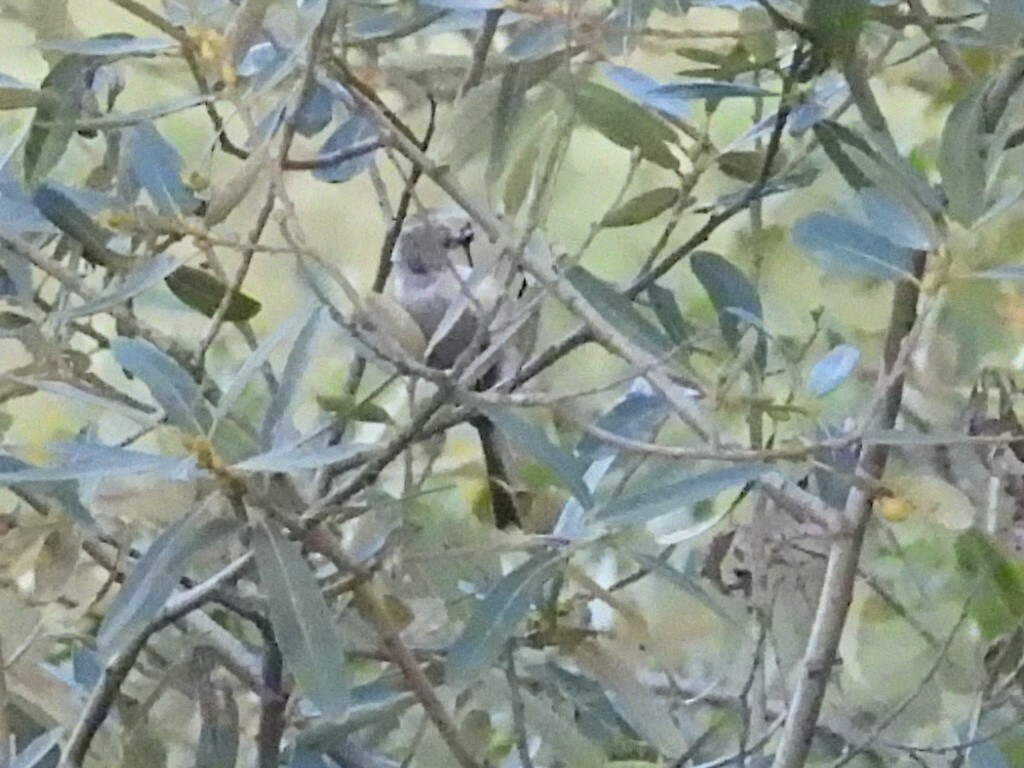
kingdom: Animalia
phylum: Chordata
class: Aves
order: Passeriformes
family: Aegithalidae
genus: Psaltriparus
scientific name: Psaltriparus minimus
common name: American bushtit
